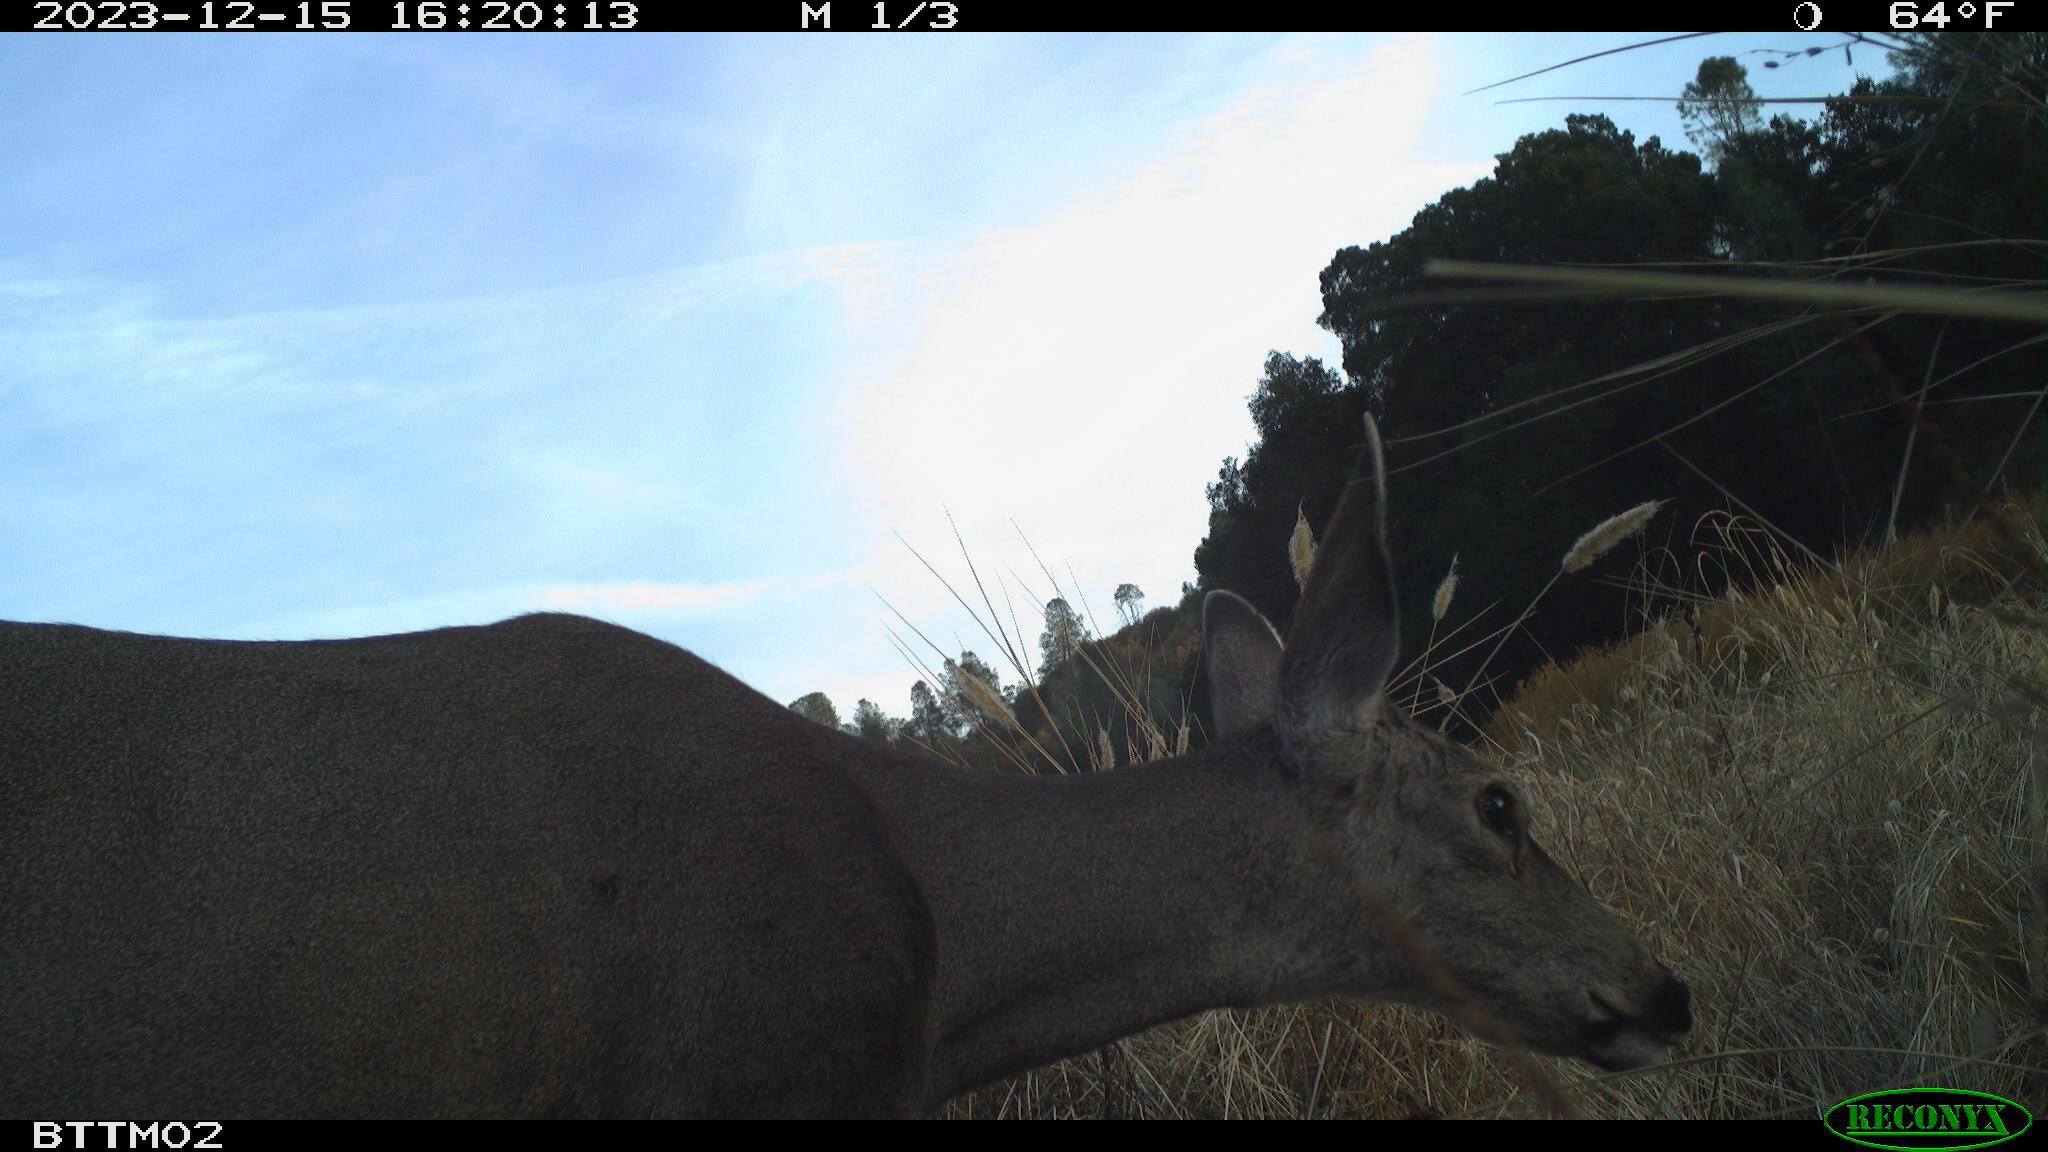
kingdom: Animalia
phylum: Chordata
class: Mammalia
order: Artiodactyla
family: Cervidae
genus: Odocoileus
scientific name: Odocoileus hemionus
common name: Mule deer
